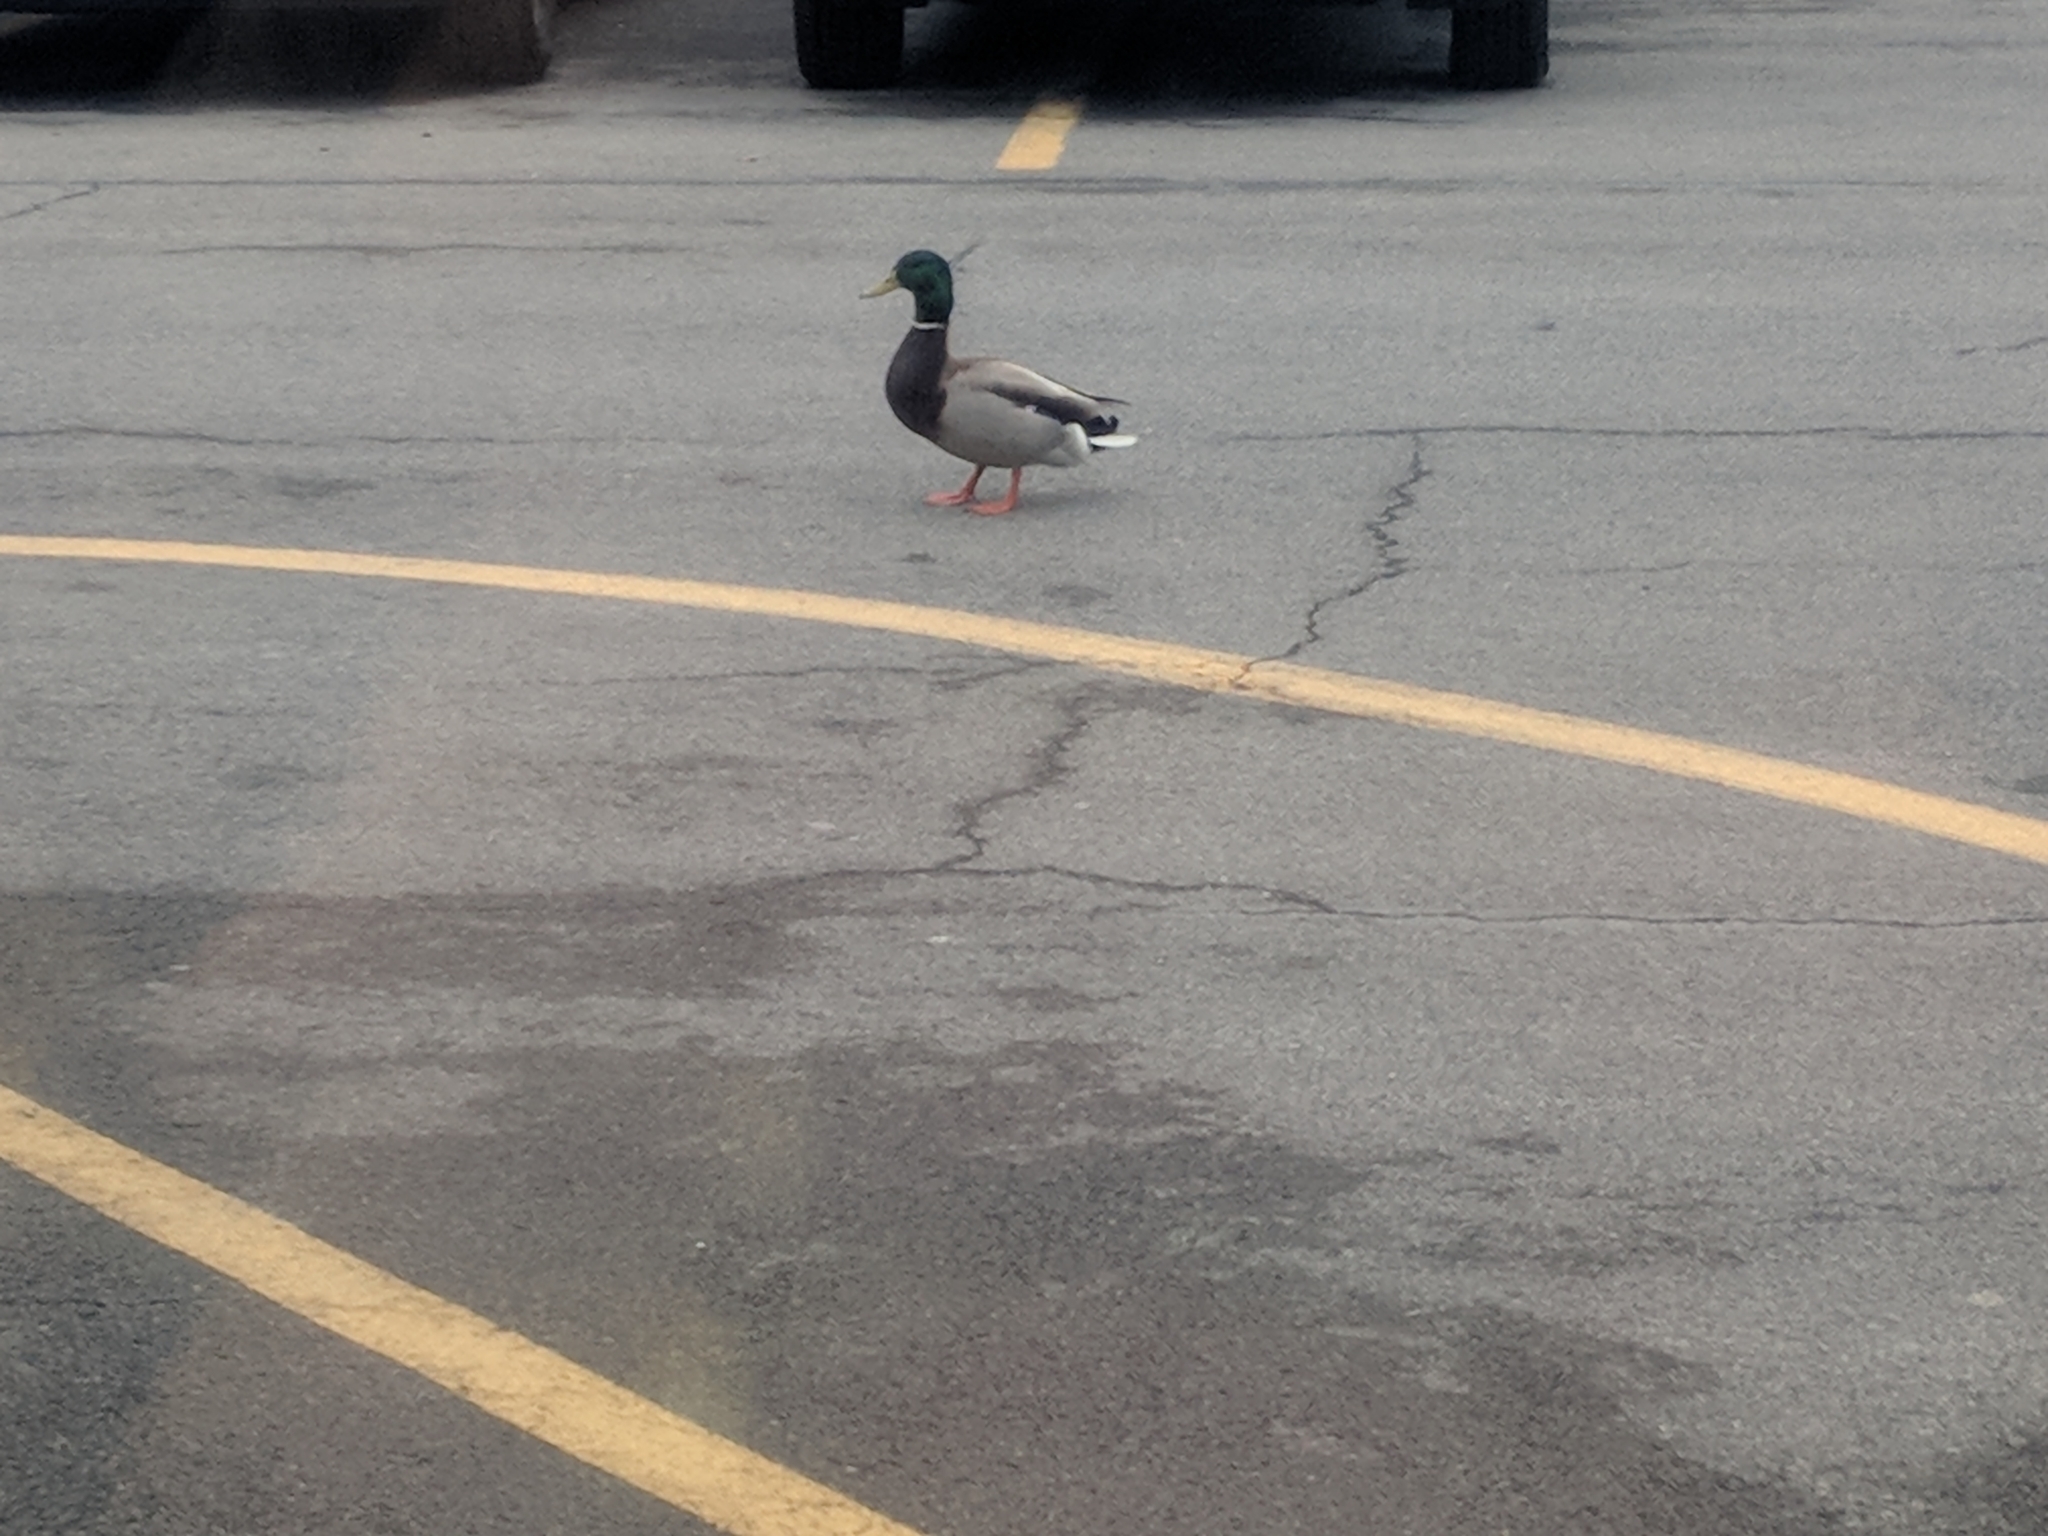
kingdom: Animalia
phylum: Chordata
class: Aves
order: Anseriformes
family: Anatidae
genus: Anas
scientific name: Anas platyrhynchos
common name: Mallard
